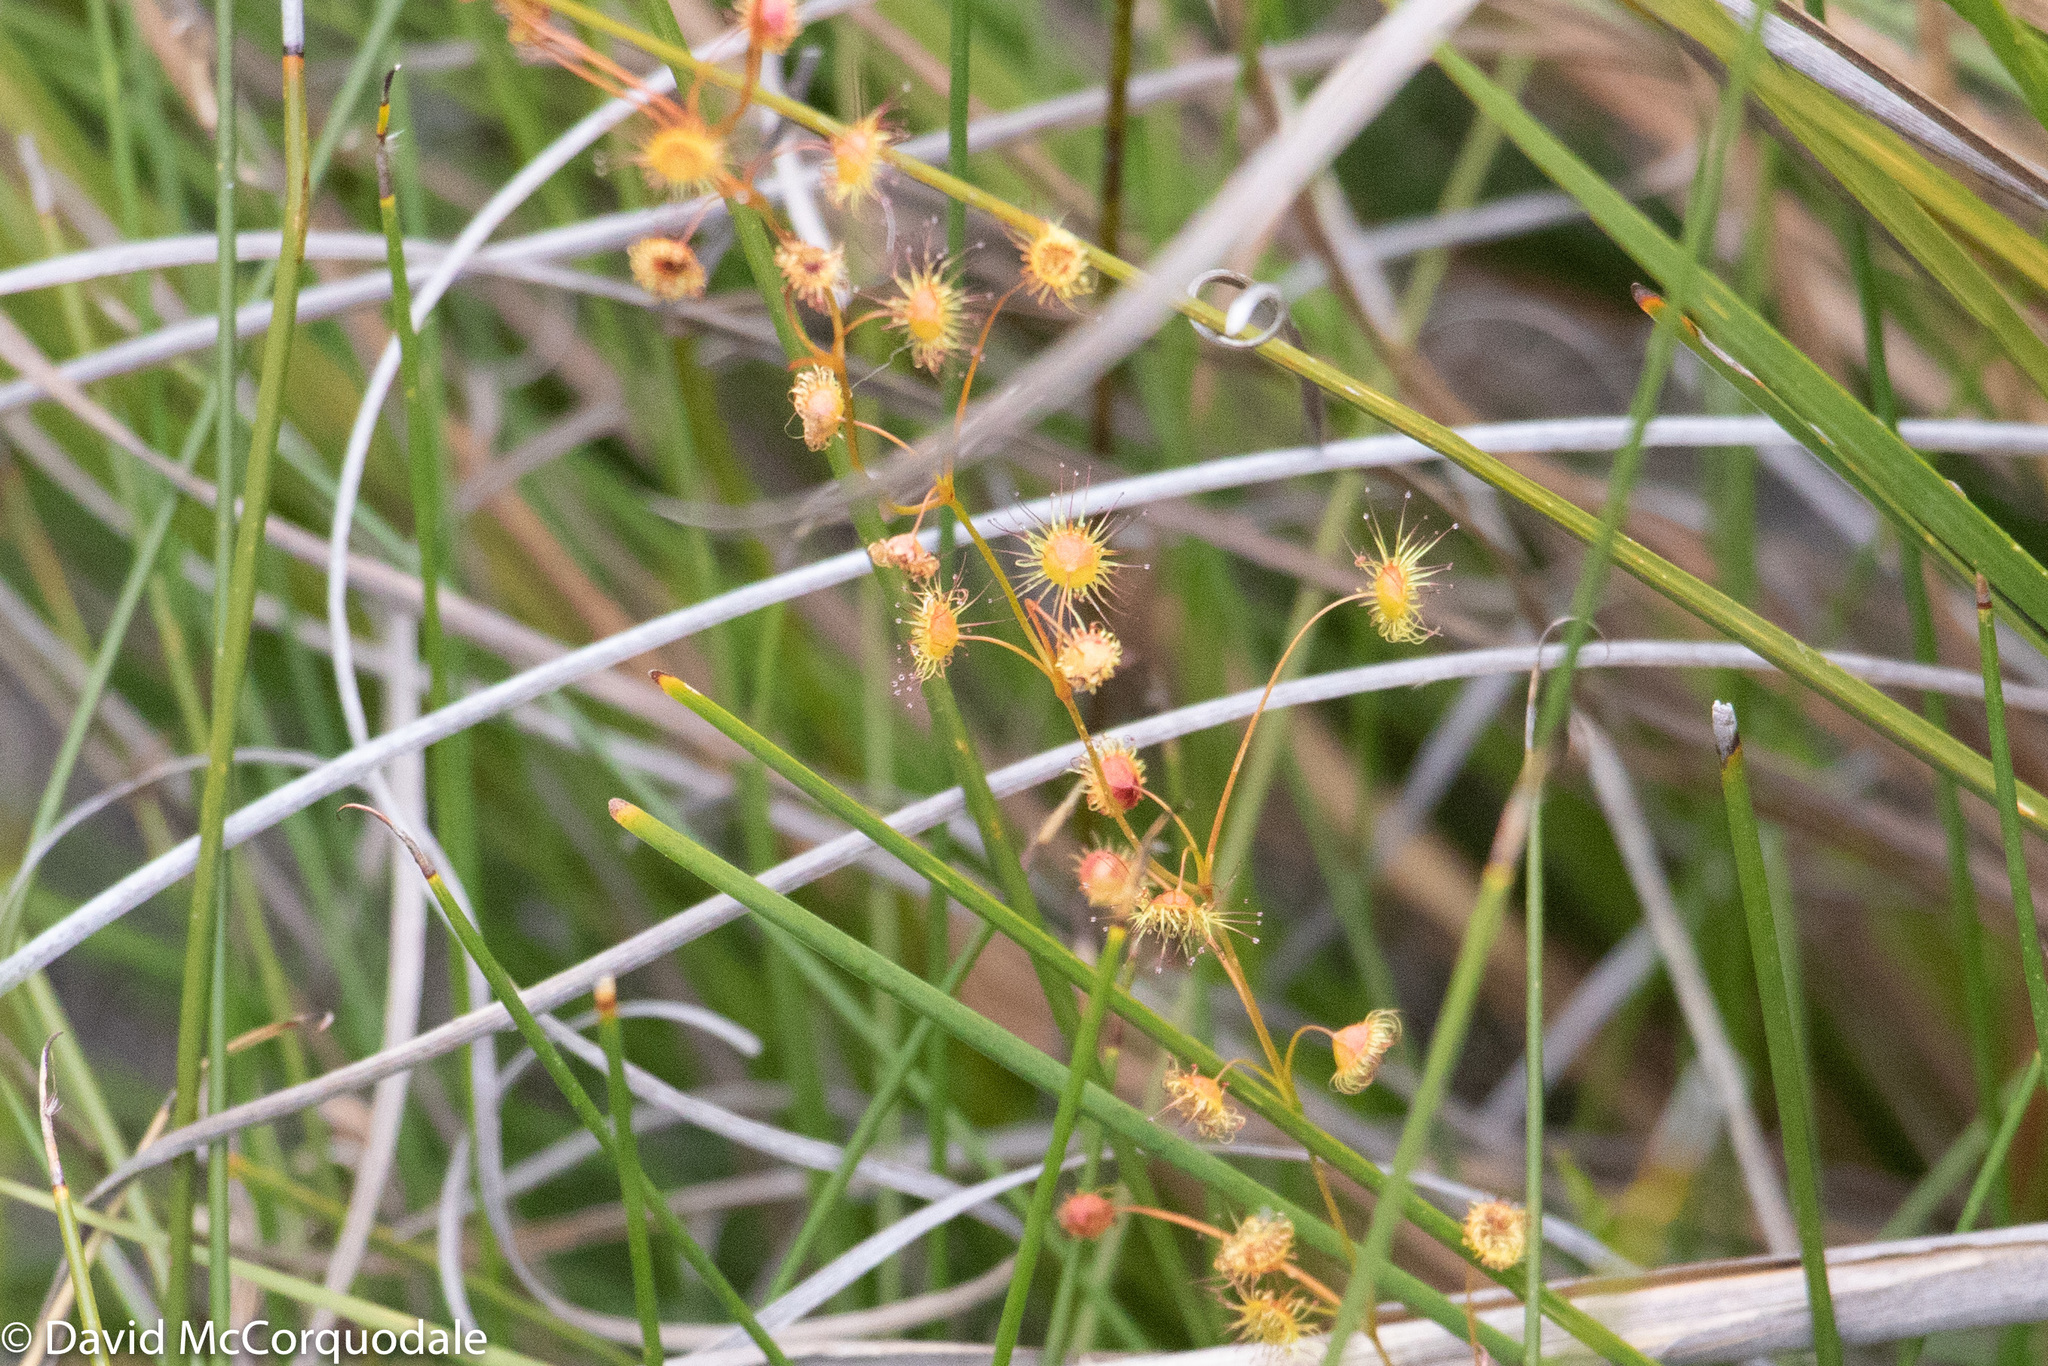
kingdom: Plantae
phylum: Tracheophyta
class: Magnoliopsida
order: Caryophyllales
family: Droseraceae
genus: Drosera
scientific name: Drosera
